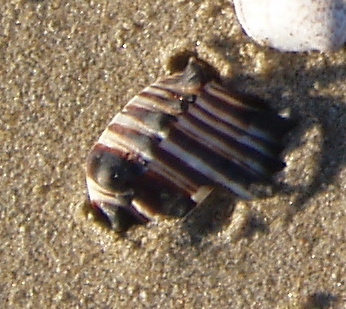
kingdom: Animalia
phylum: Mollusca
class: Gastropoda
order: Neogastropoda
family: Muricidae
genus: Muricanthus
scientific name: Muricanthus nigritus
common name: Black murex
